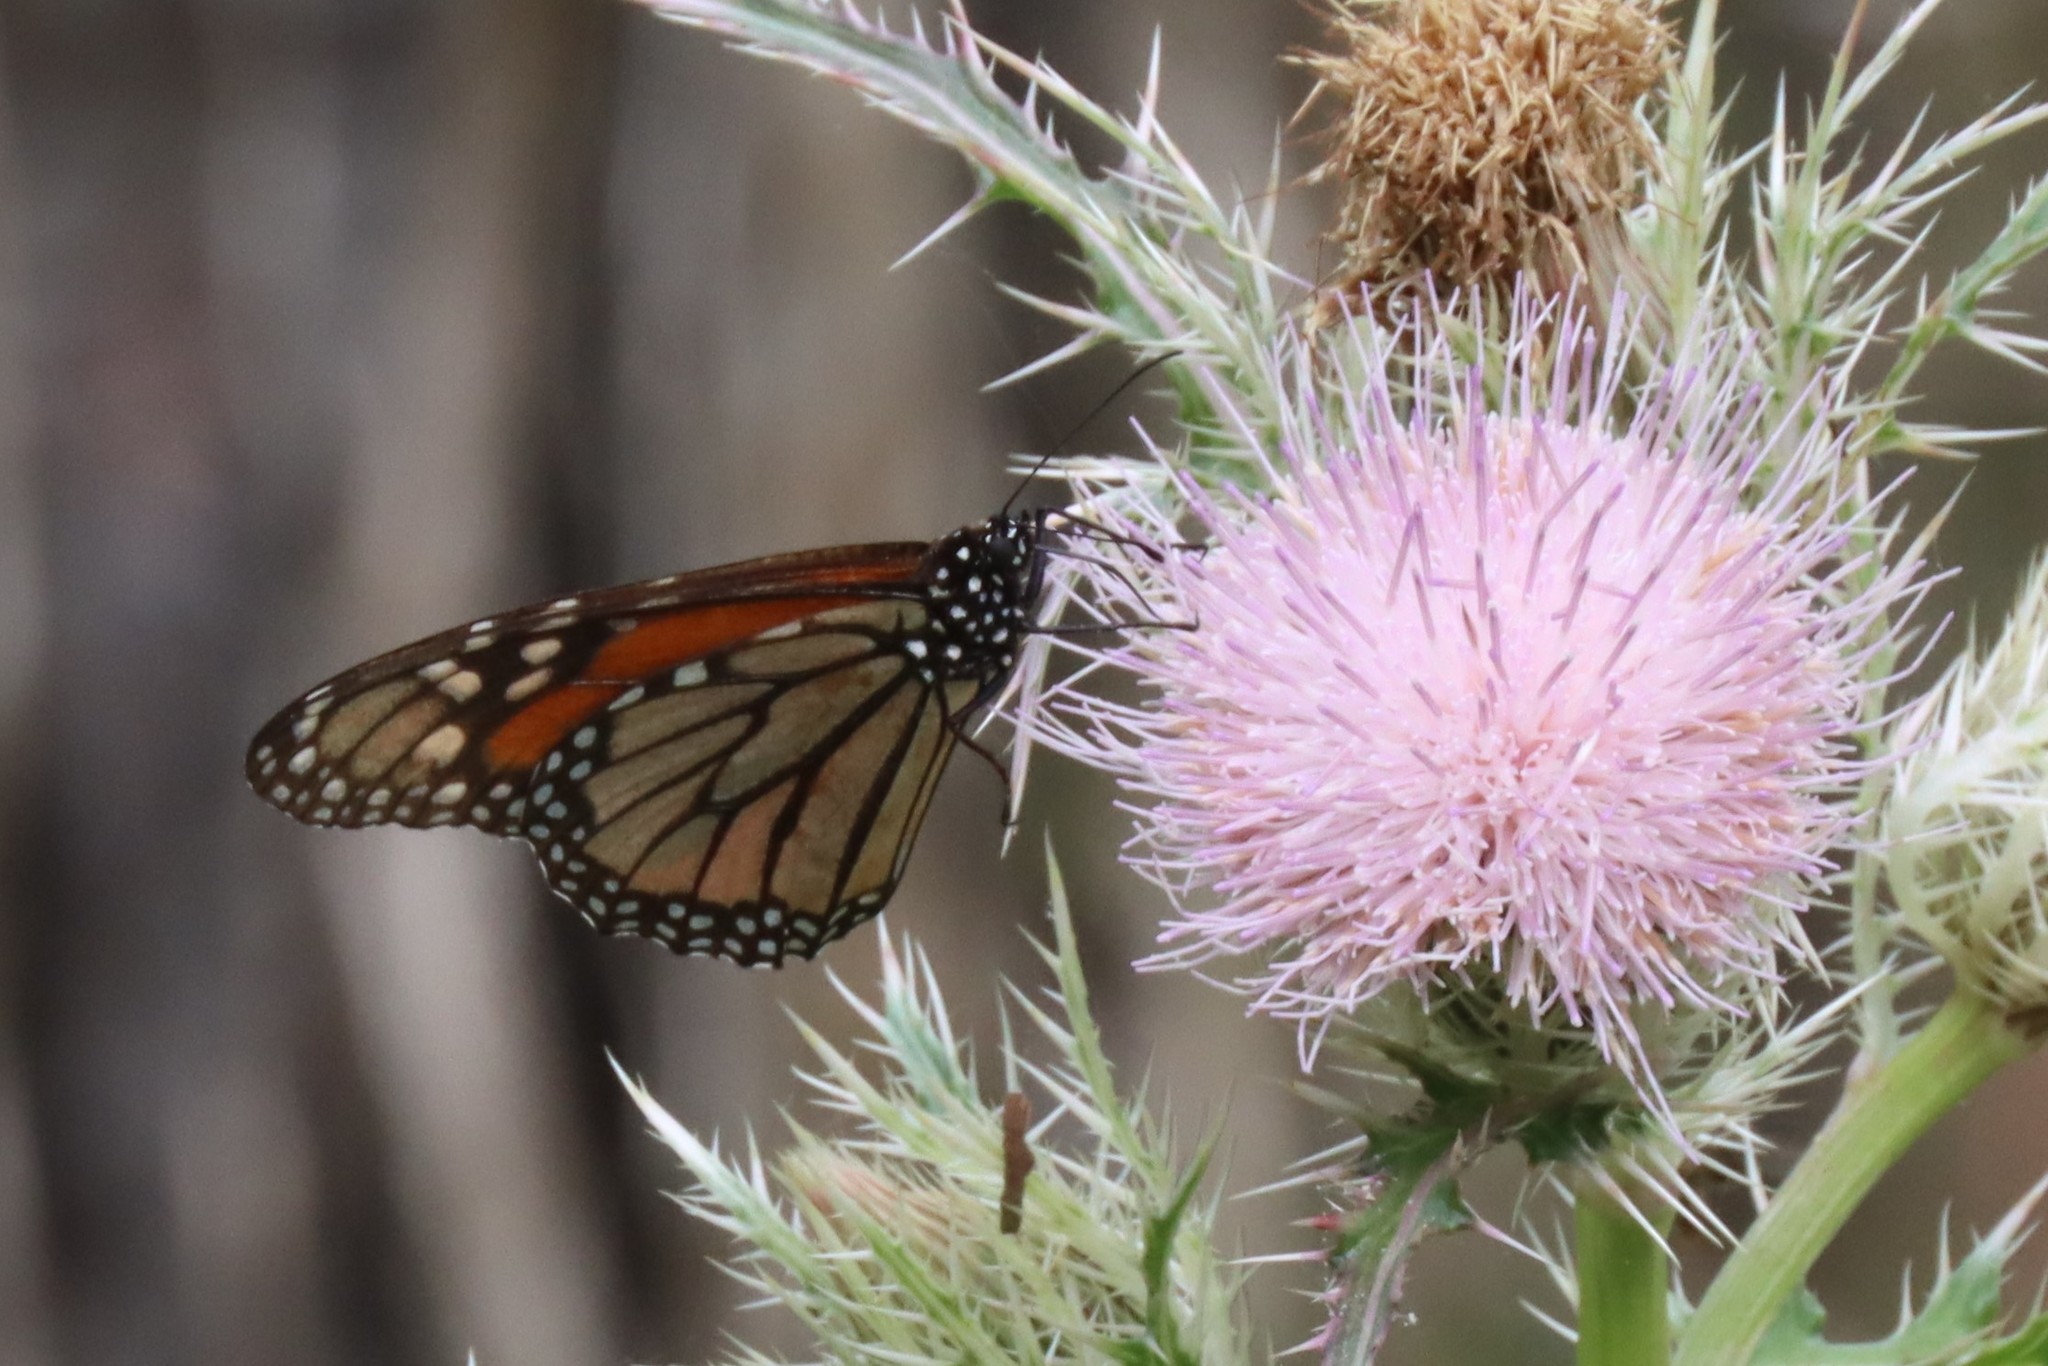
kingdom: Animalia
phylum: Arthropoda
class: Insecta
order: Lepidoptera
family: Nymphalidae
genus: Danaus
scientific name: Danaus plexippus
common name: Monarch
